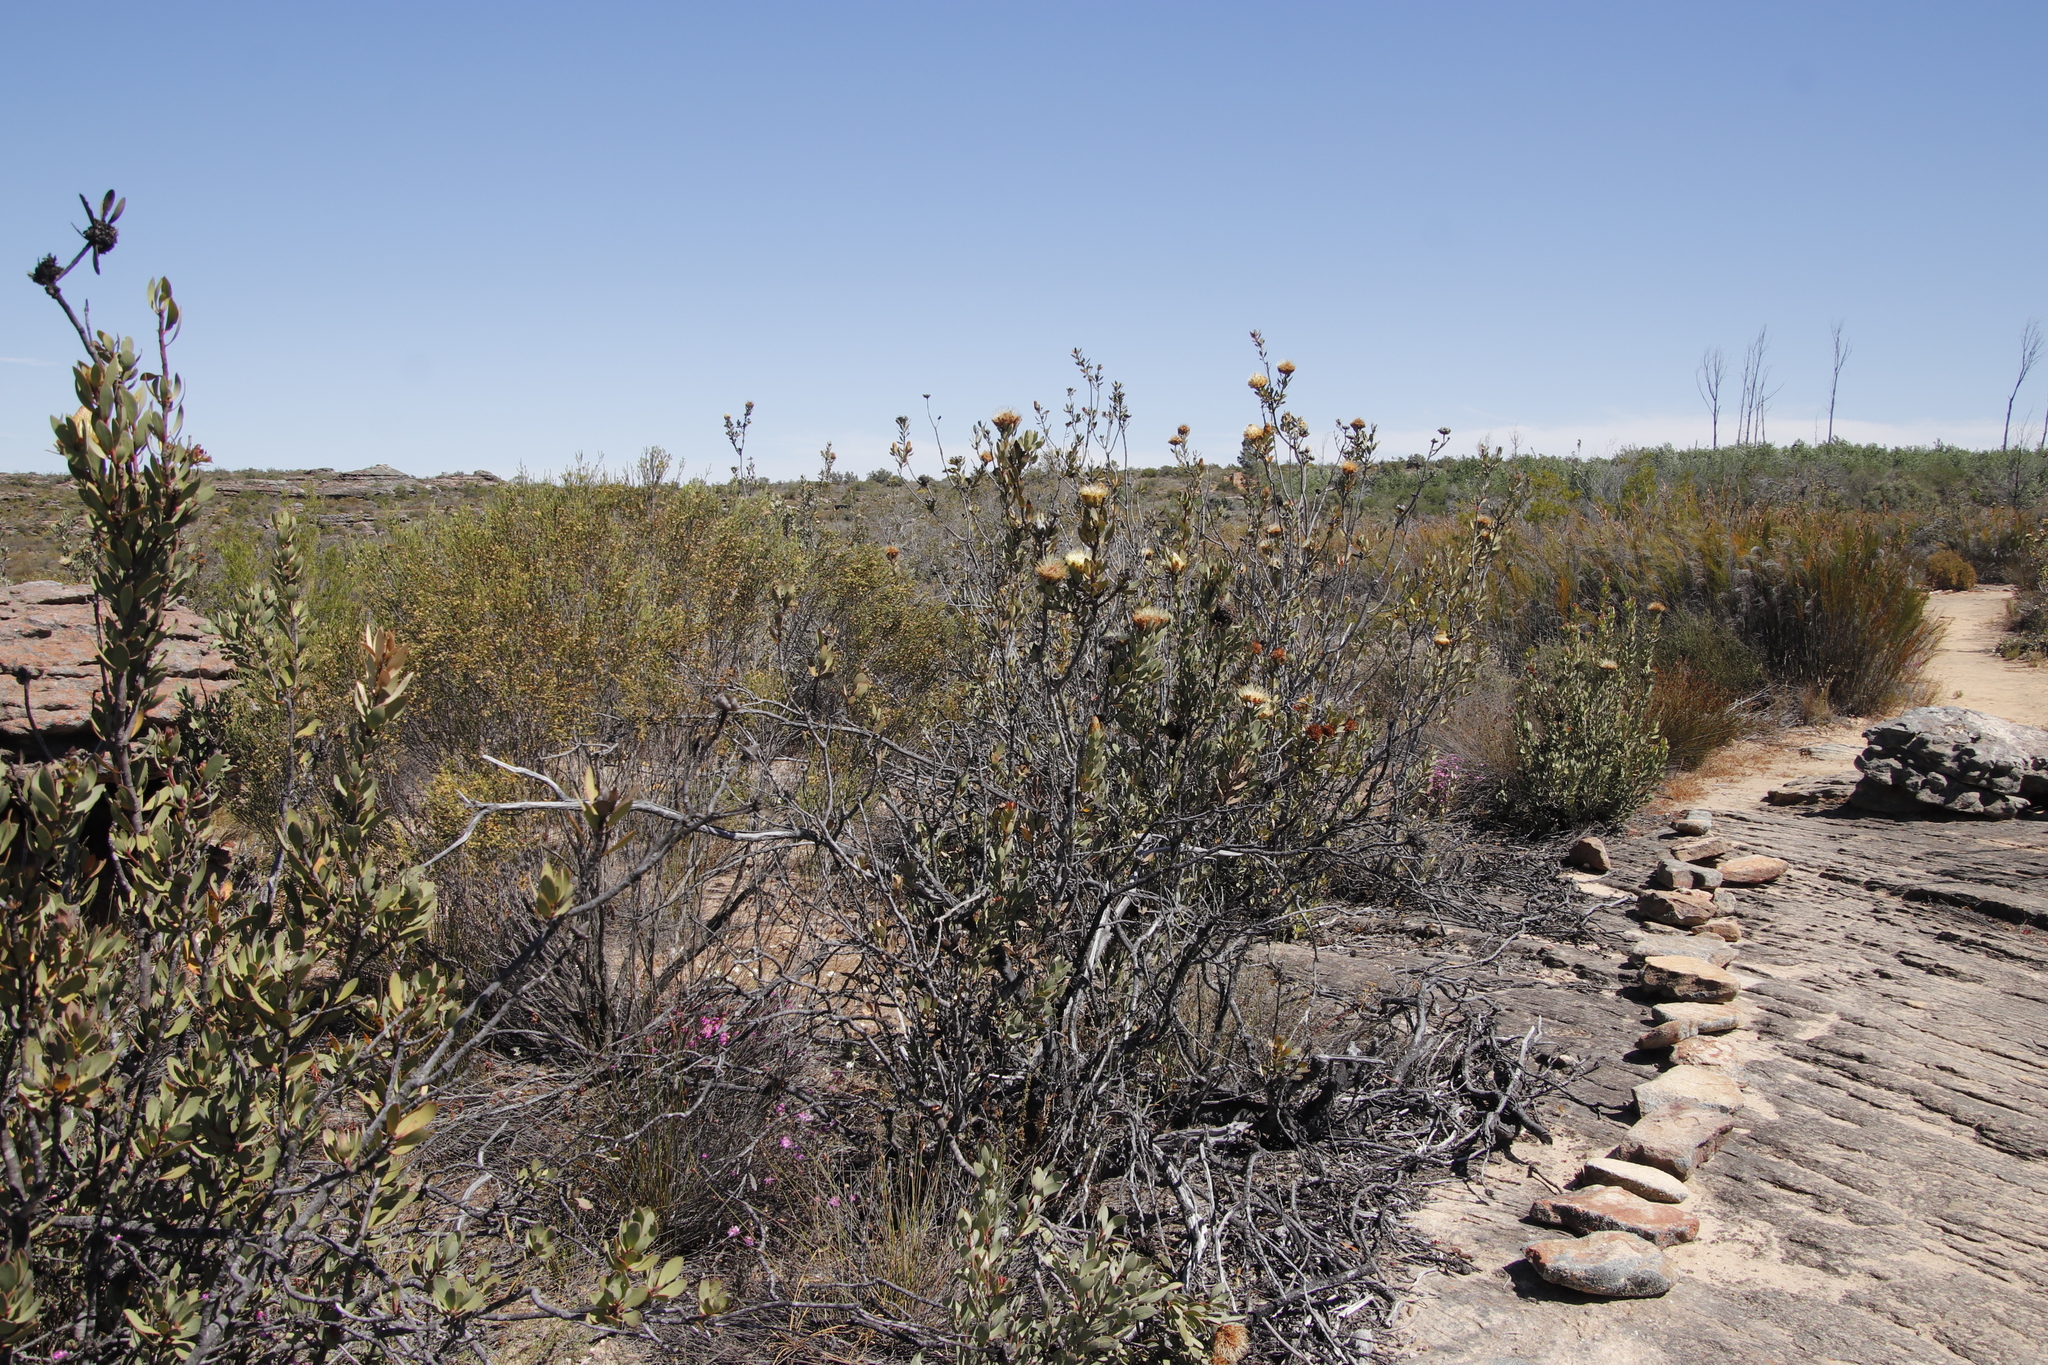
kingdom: Plantae
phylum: Tracheophyta
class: Magnoliopsida
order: Proteales
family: Proteaceae
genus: Protea
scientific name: Protea glabra
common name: Chestnut sugarbush
